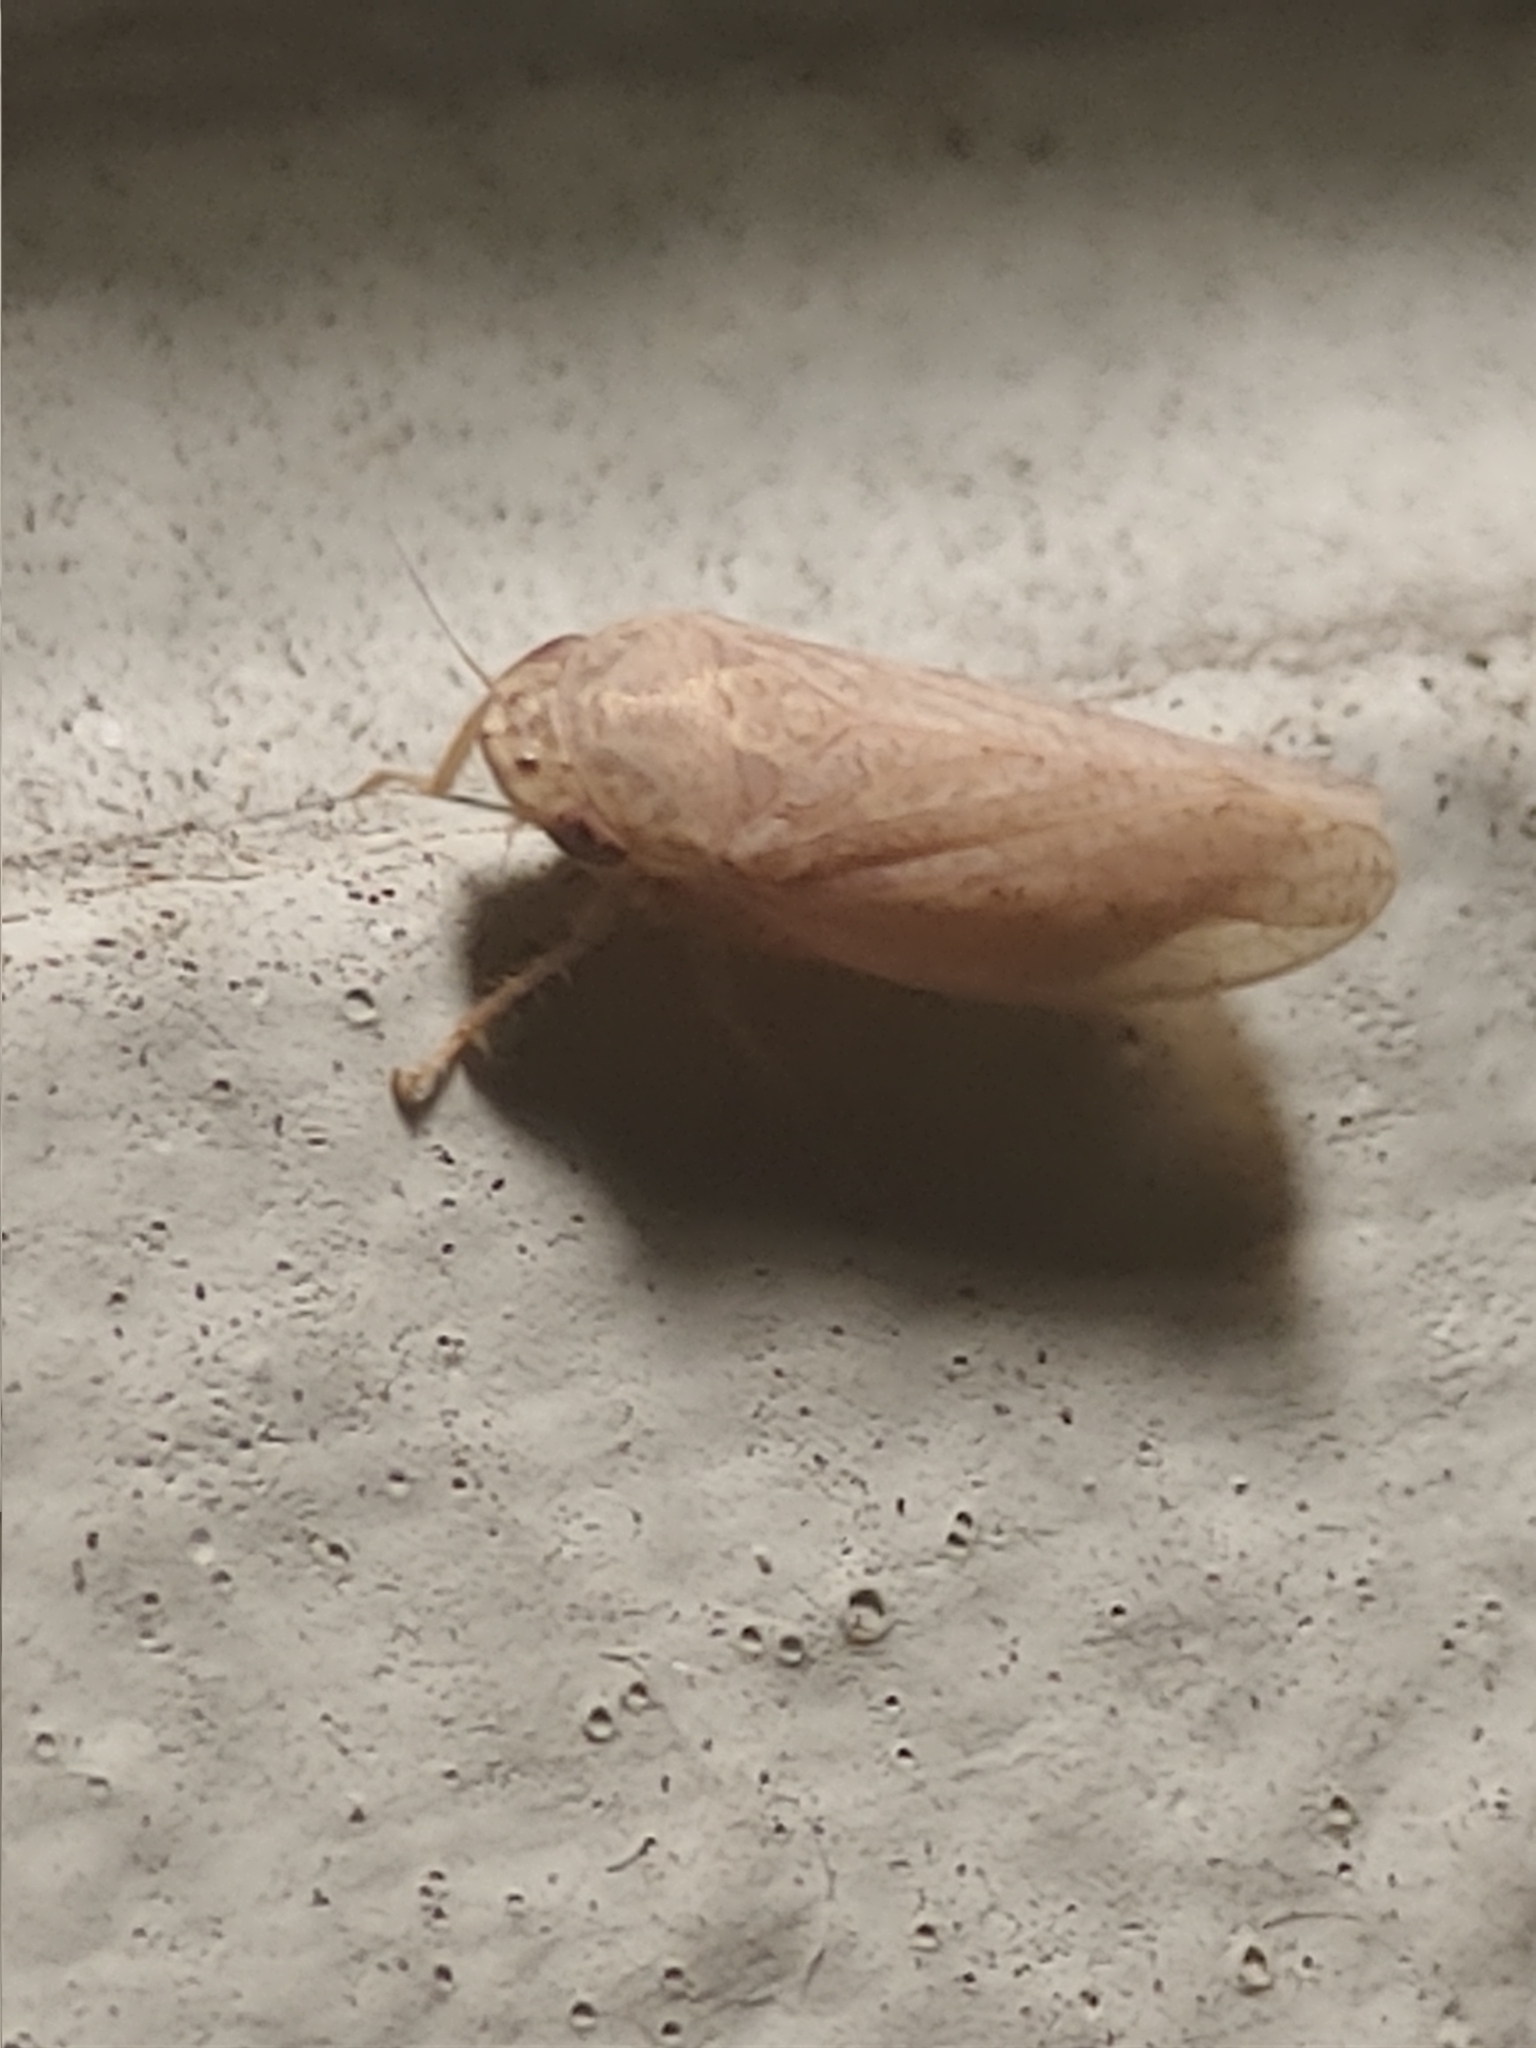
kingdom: Animalia
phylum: Arthropoda
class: Insecta
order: Hemiptera
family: Cicadellidae
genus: Curtara
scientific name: Curtara insularis
